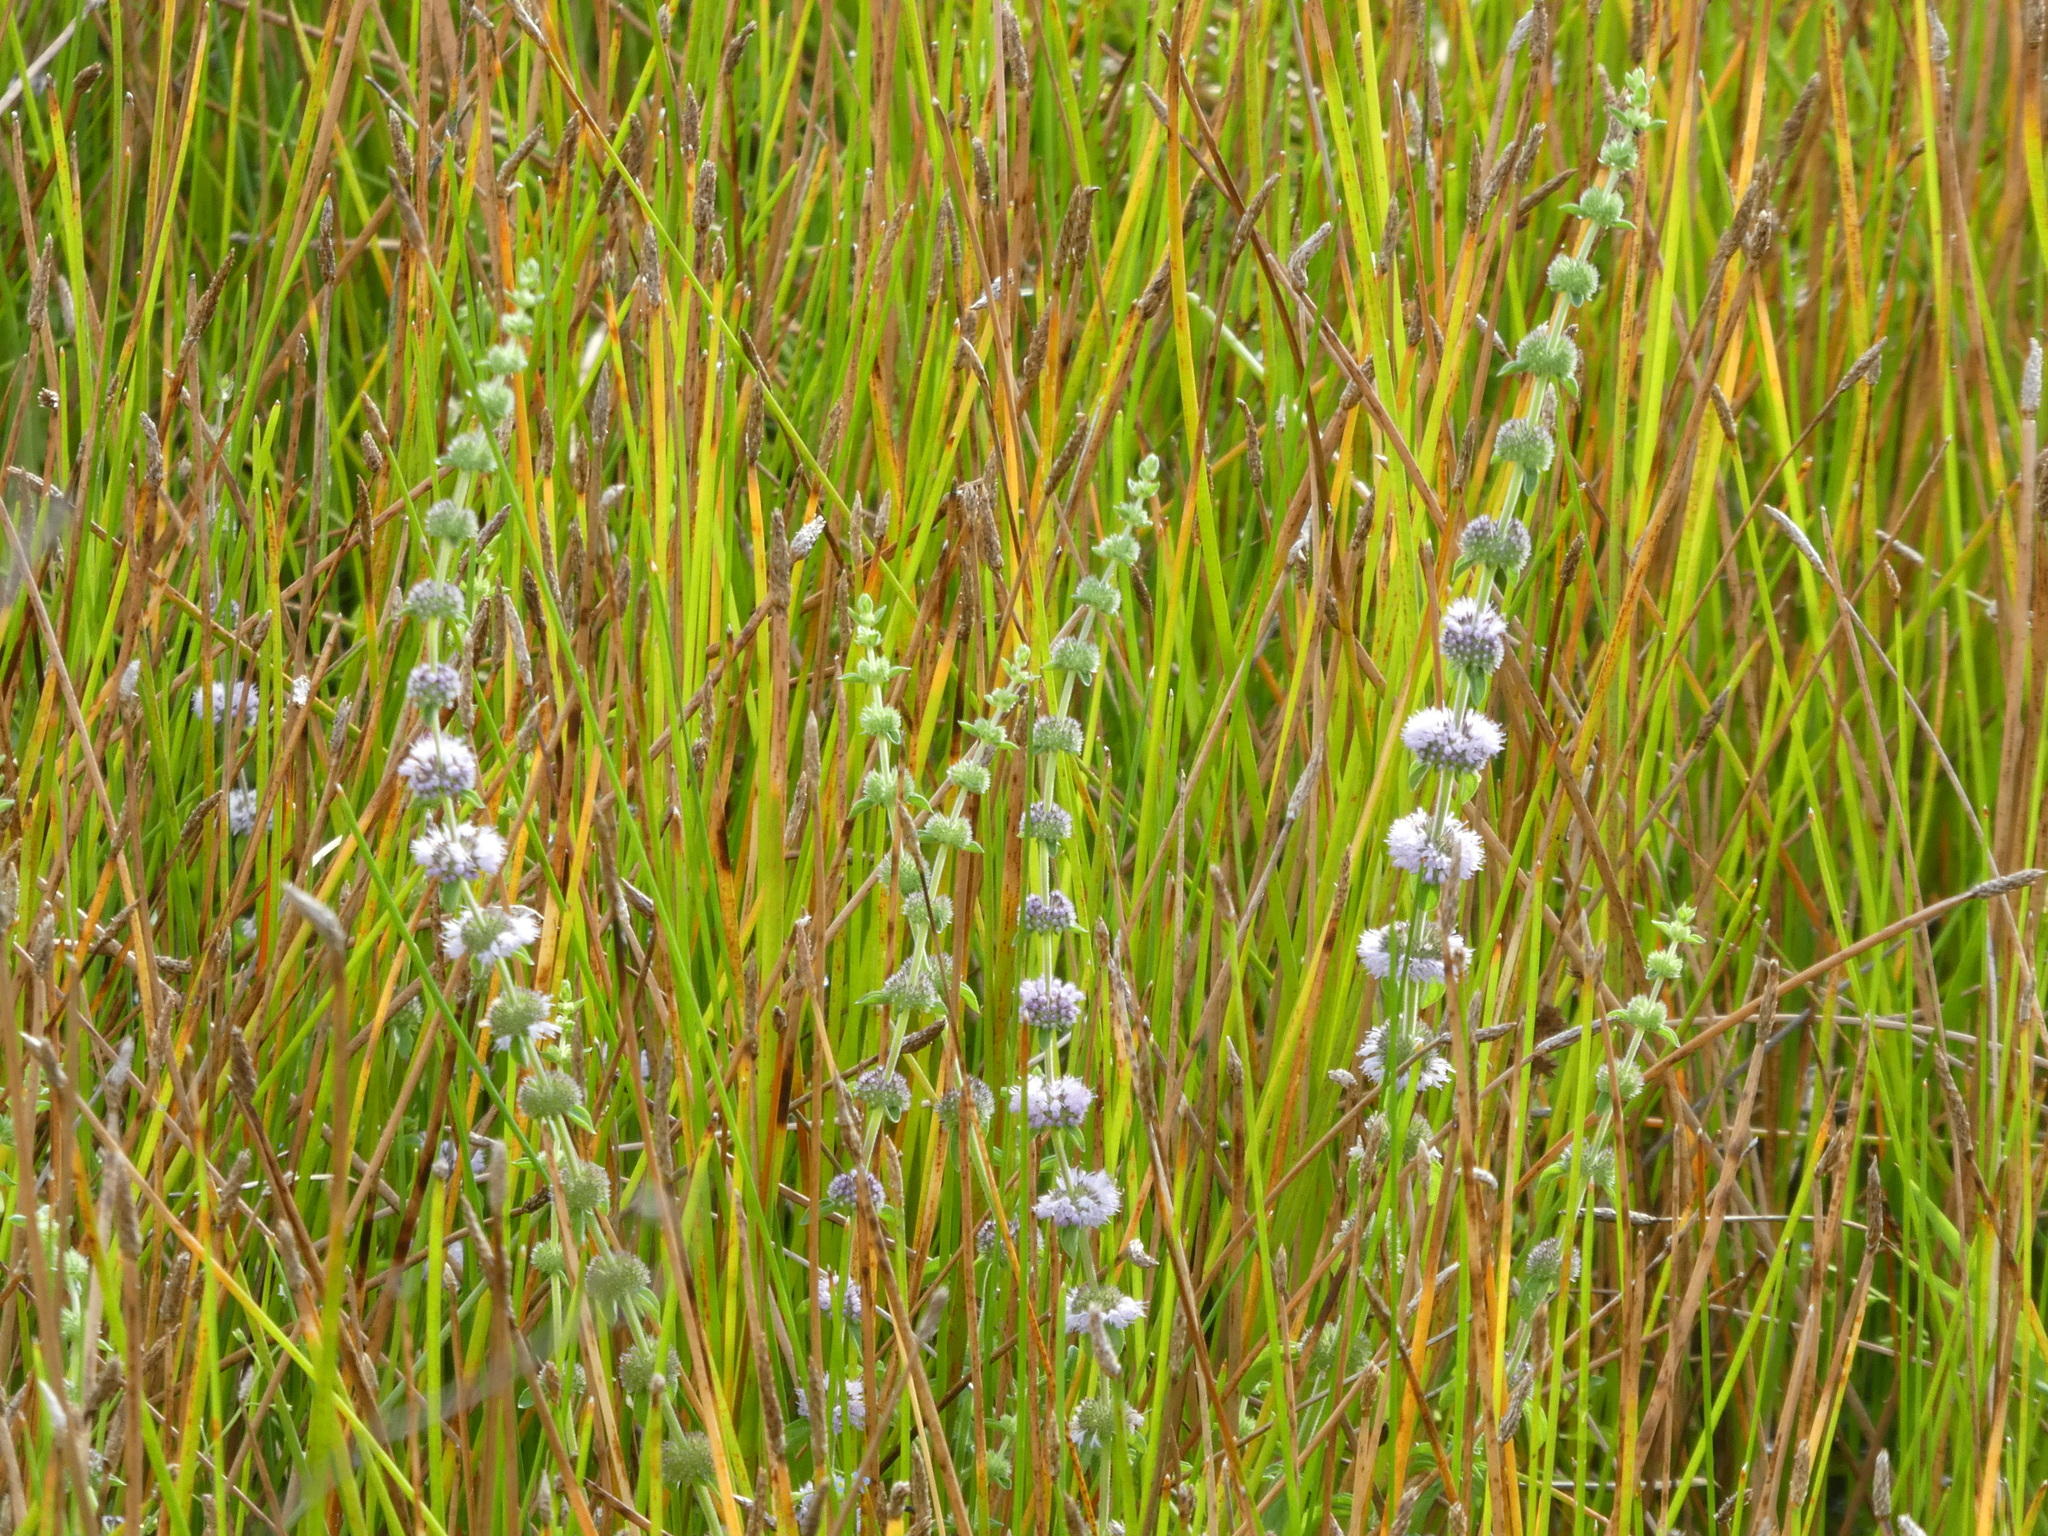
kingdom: Plantae
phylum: Tracheophyta
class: Magnoliopsida
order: Lamiales
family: Lamiaceae
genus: Mentha
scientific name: Mentha pulegium
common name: Pennyroyal
